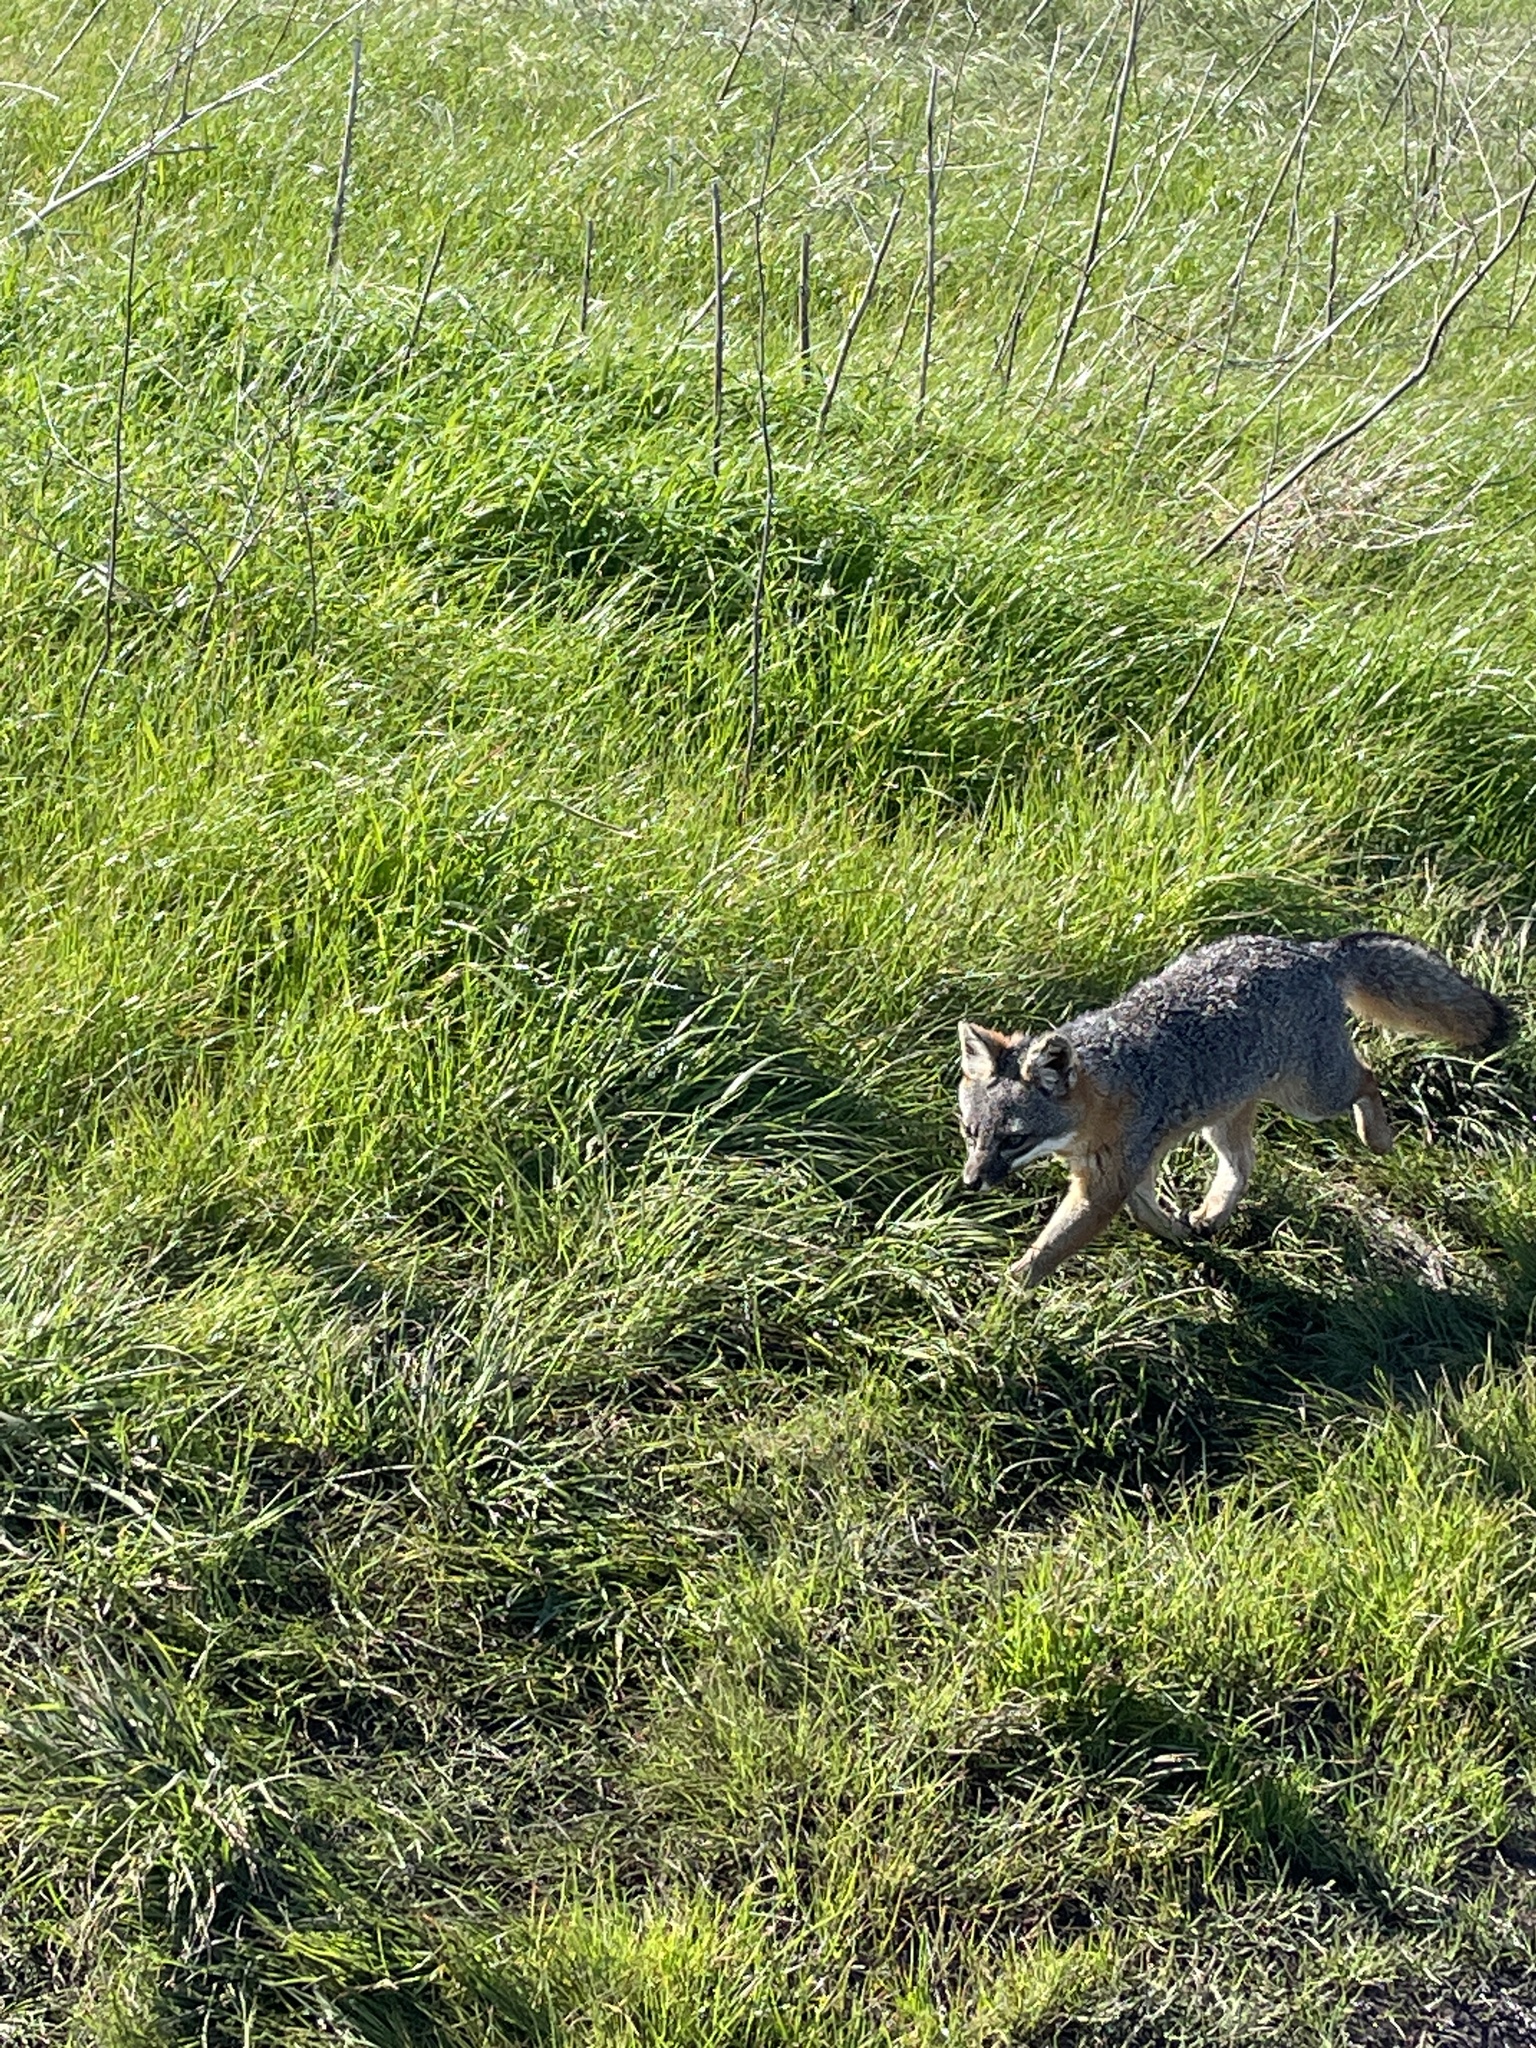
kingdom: Animalia
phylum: Chordata
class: Mammalia
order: Carnivora
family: Canidae
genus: Urocyon
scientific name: Urocyon littoralis
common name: Island gray fox
